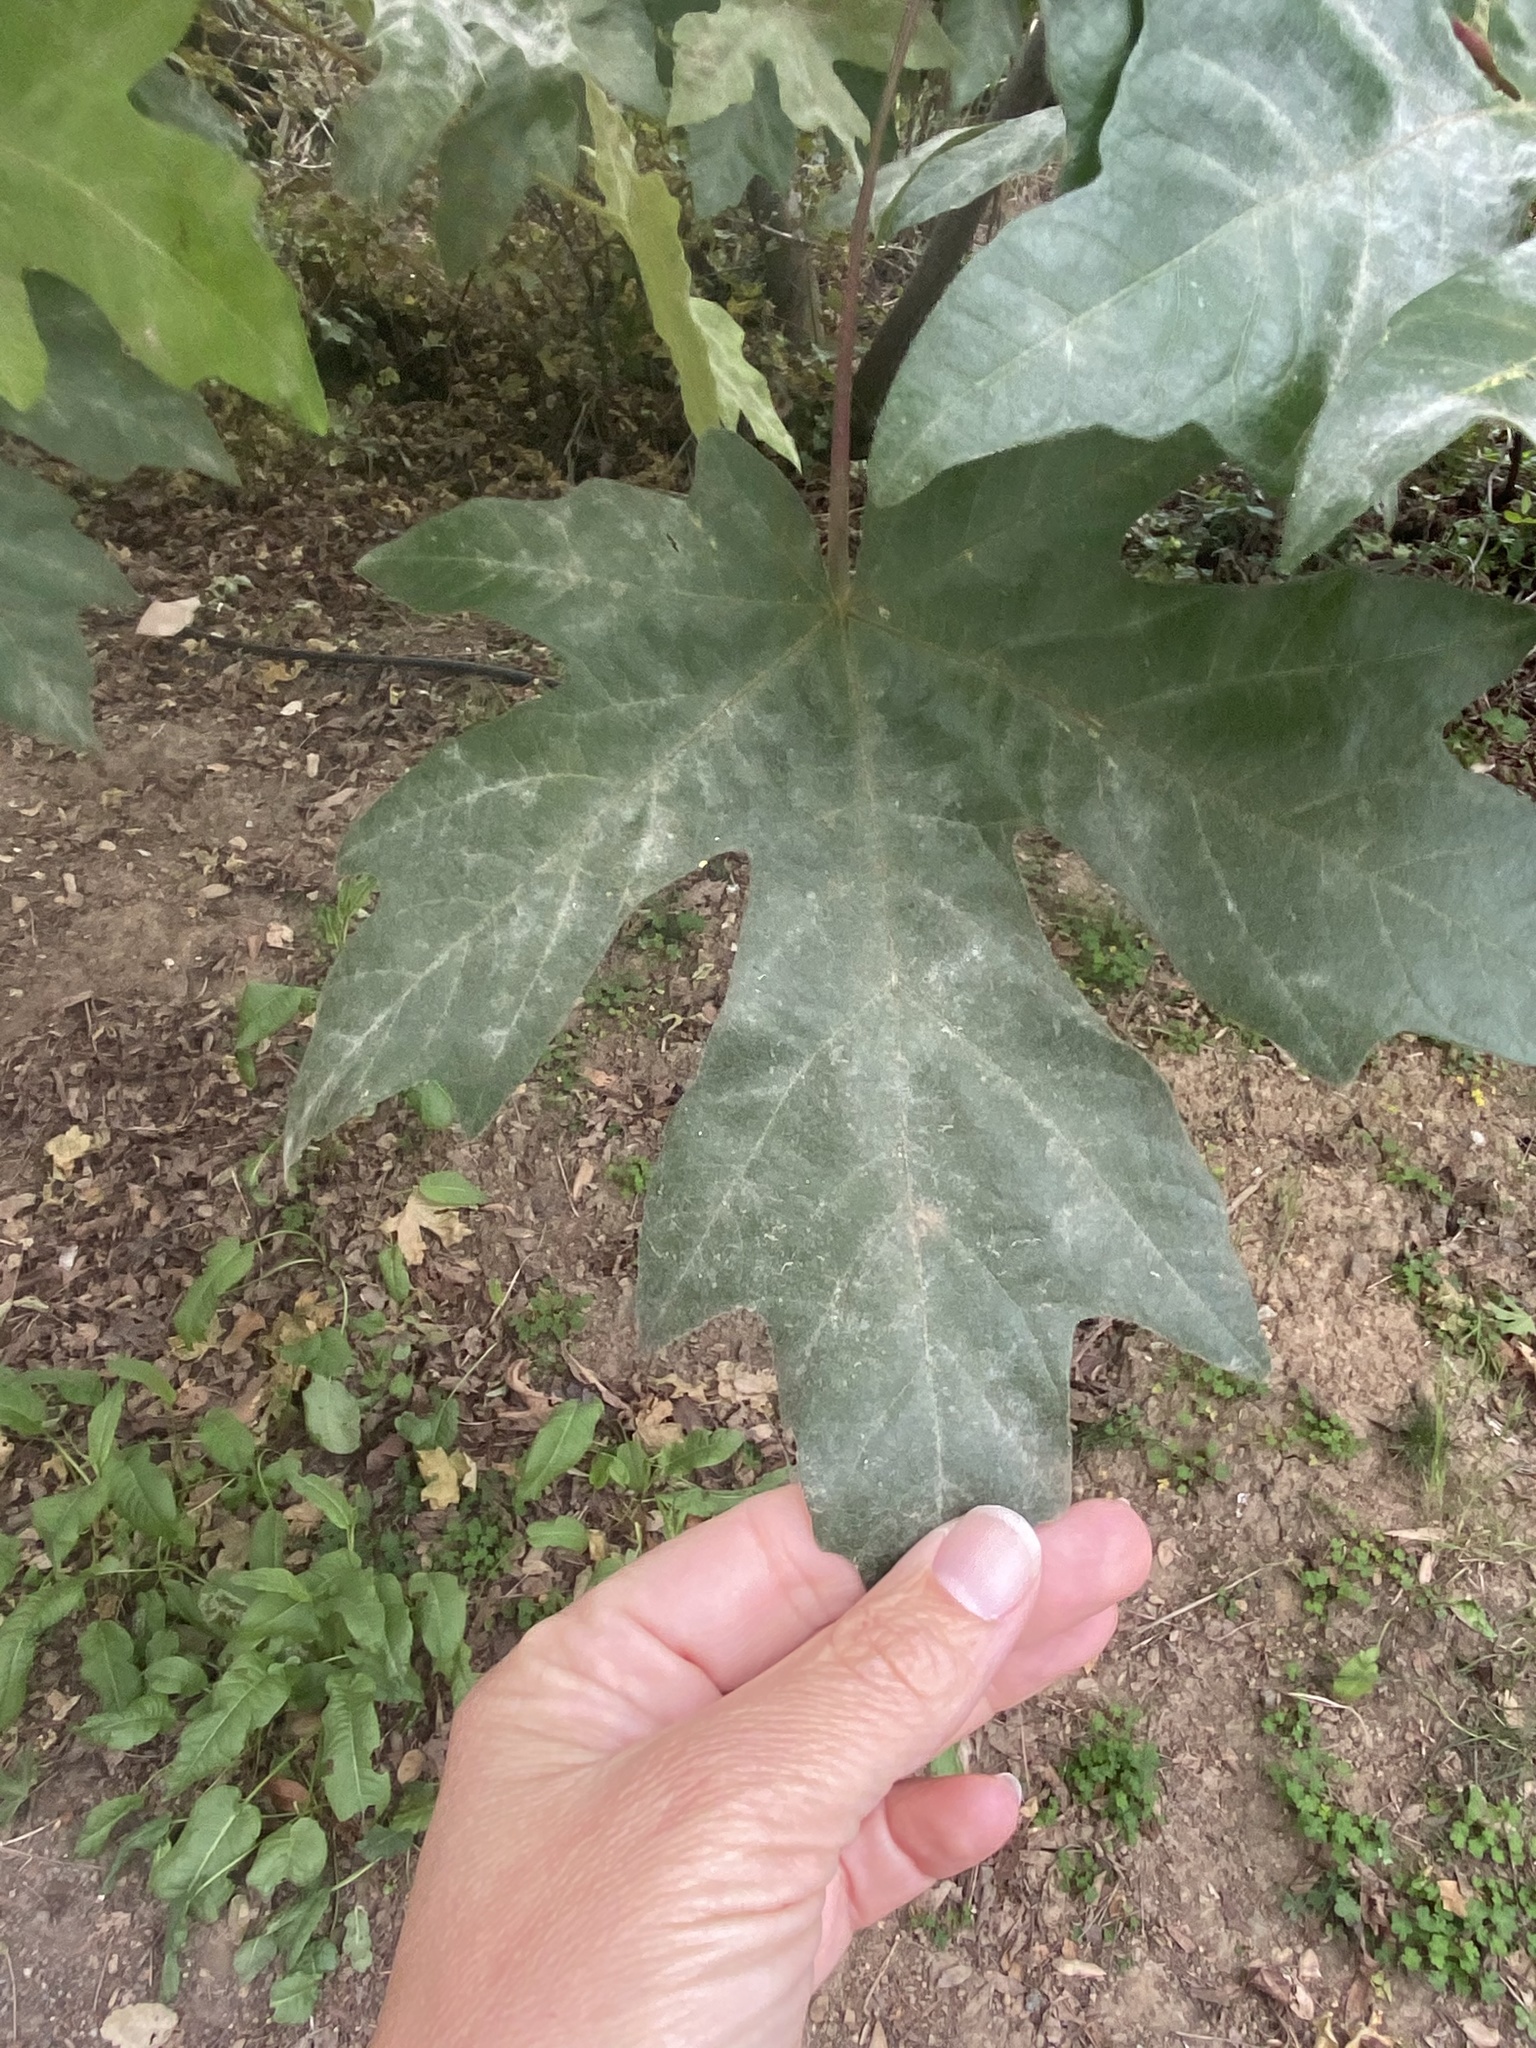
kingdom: Plantae
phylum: Tracheophyta
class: Magnoliopsida
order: Sapindales
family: Sapindaceae
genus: Acer
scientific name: Acer macrophyllum
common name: Oregon maple
